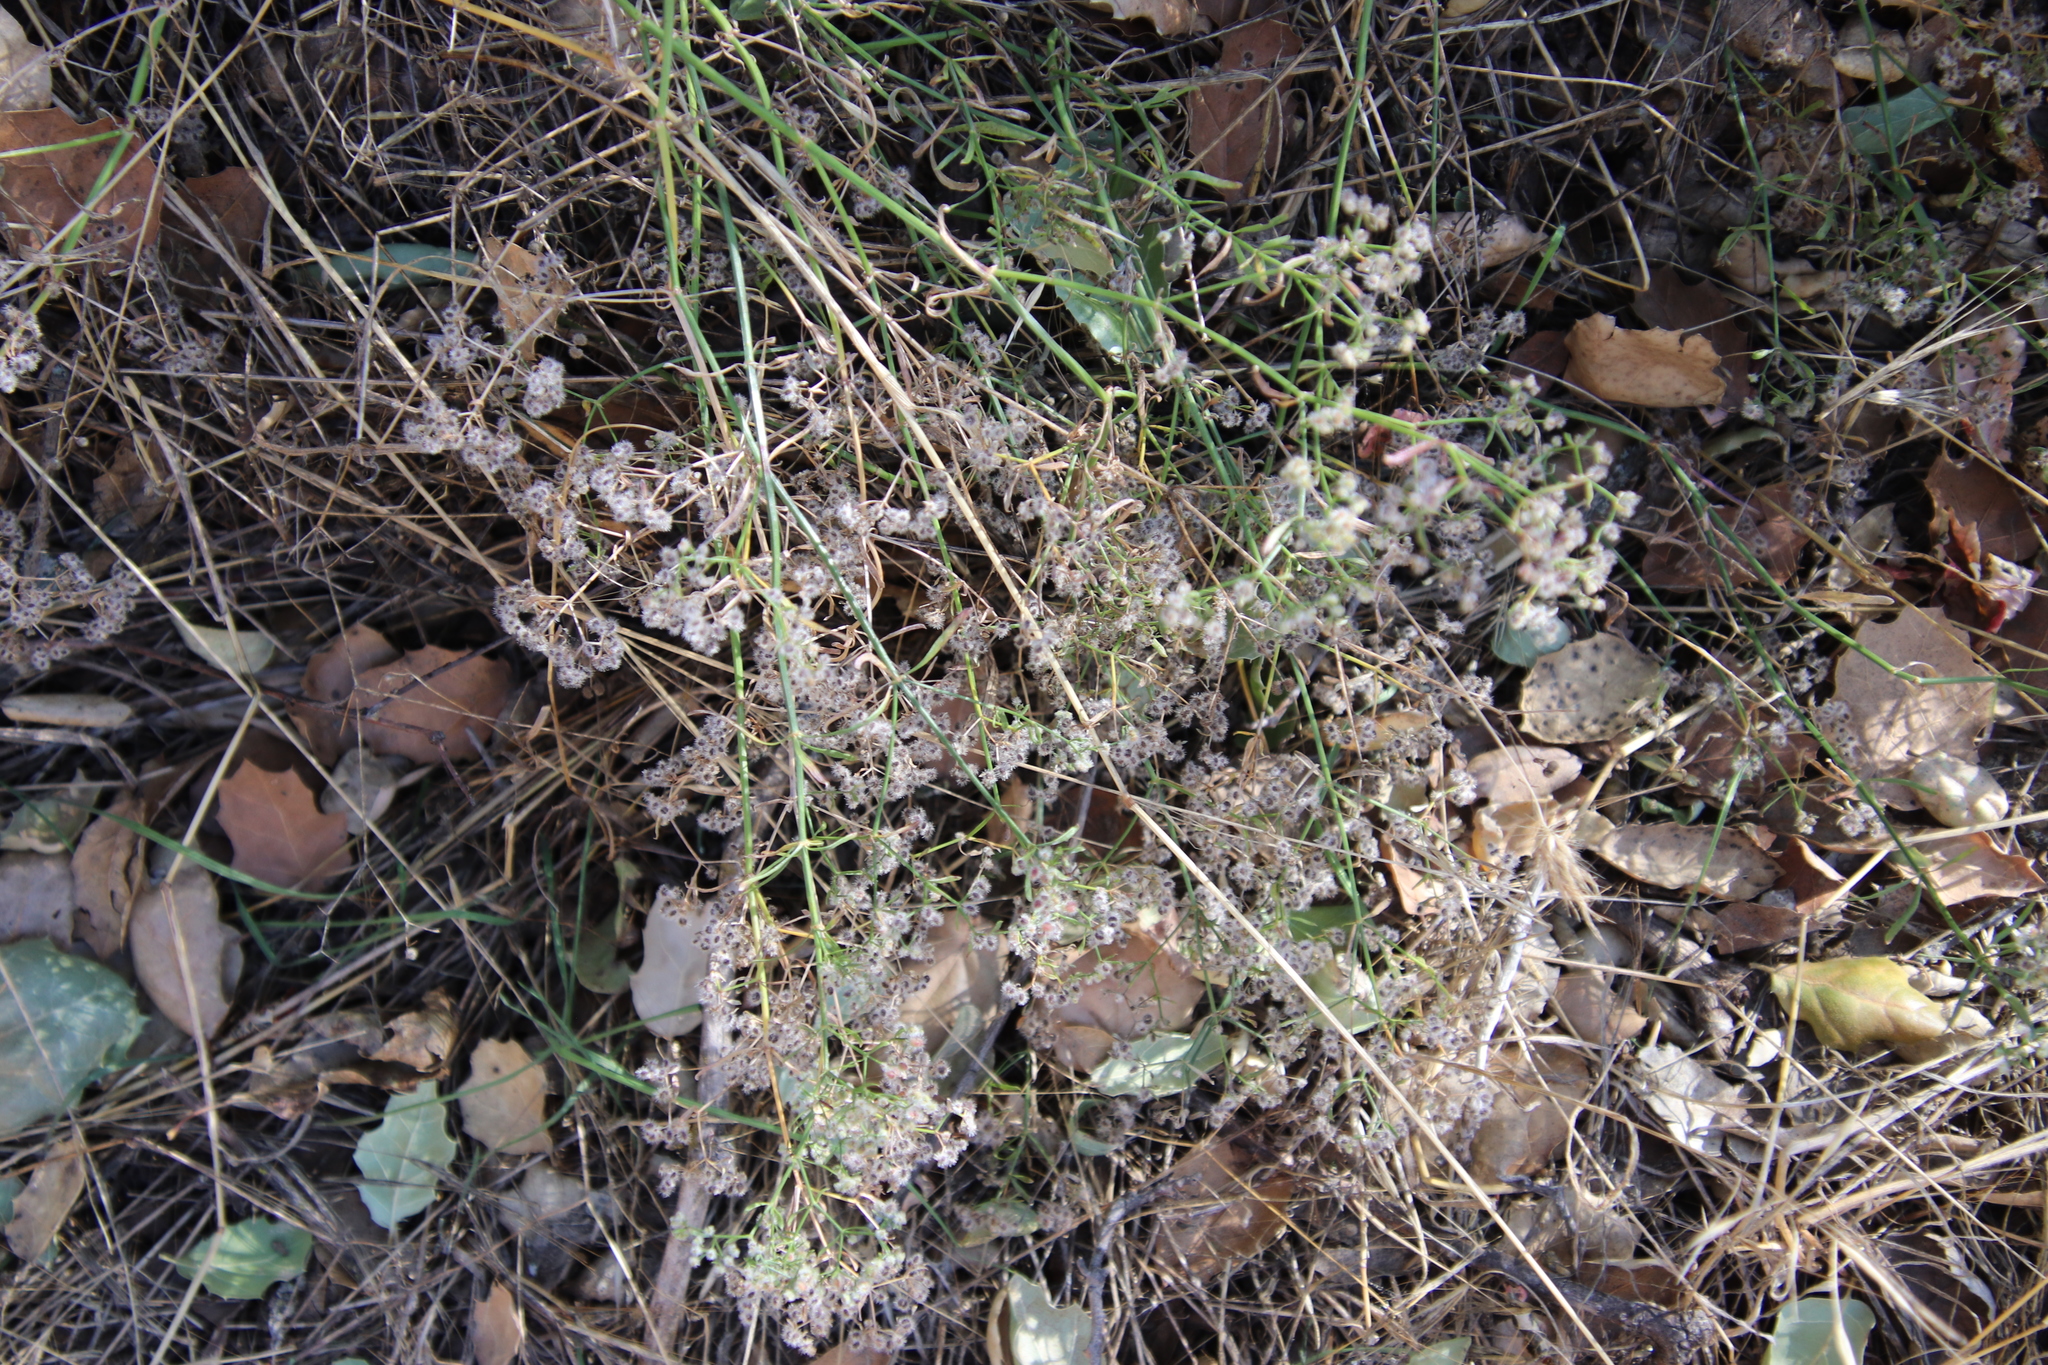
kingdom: Plantae
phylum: Tracheophyta
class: Magnoliopsida
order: Gentianales
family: Rubiaceae
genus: Galium
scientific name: Galium angustifolium
